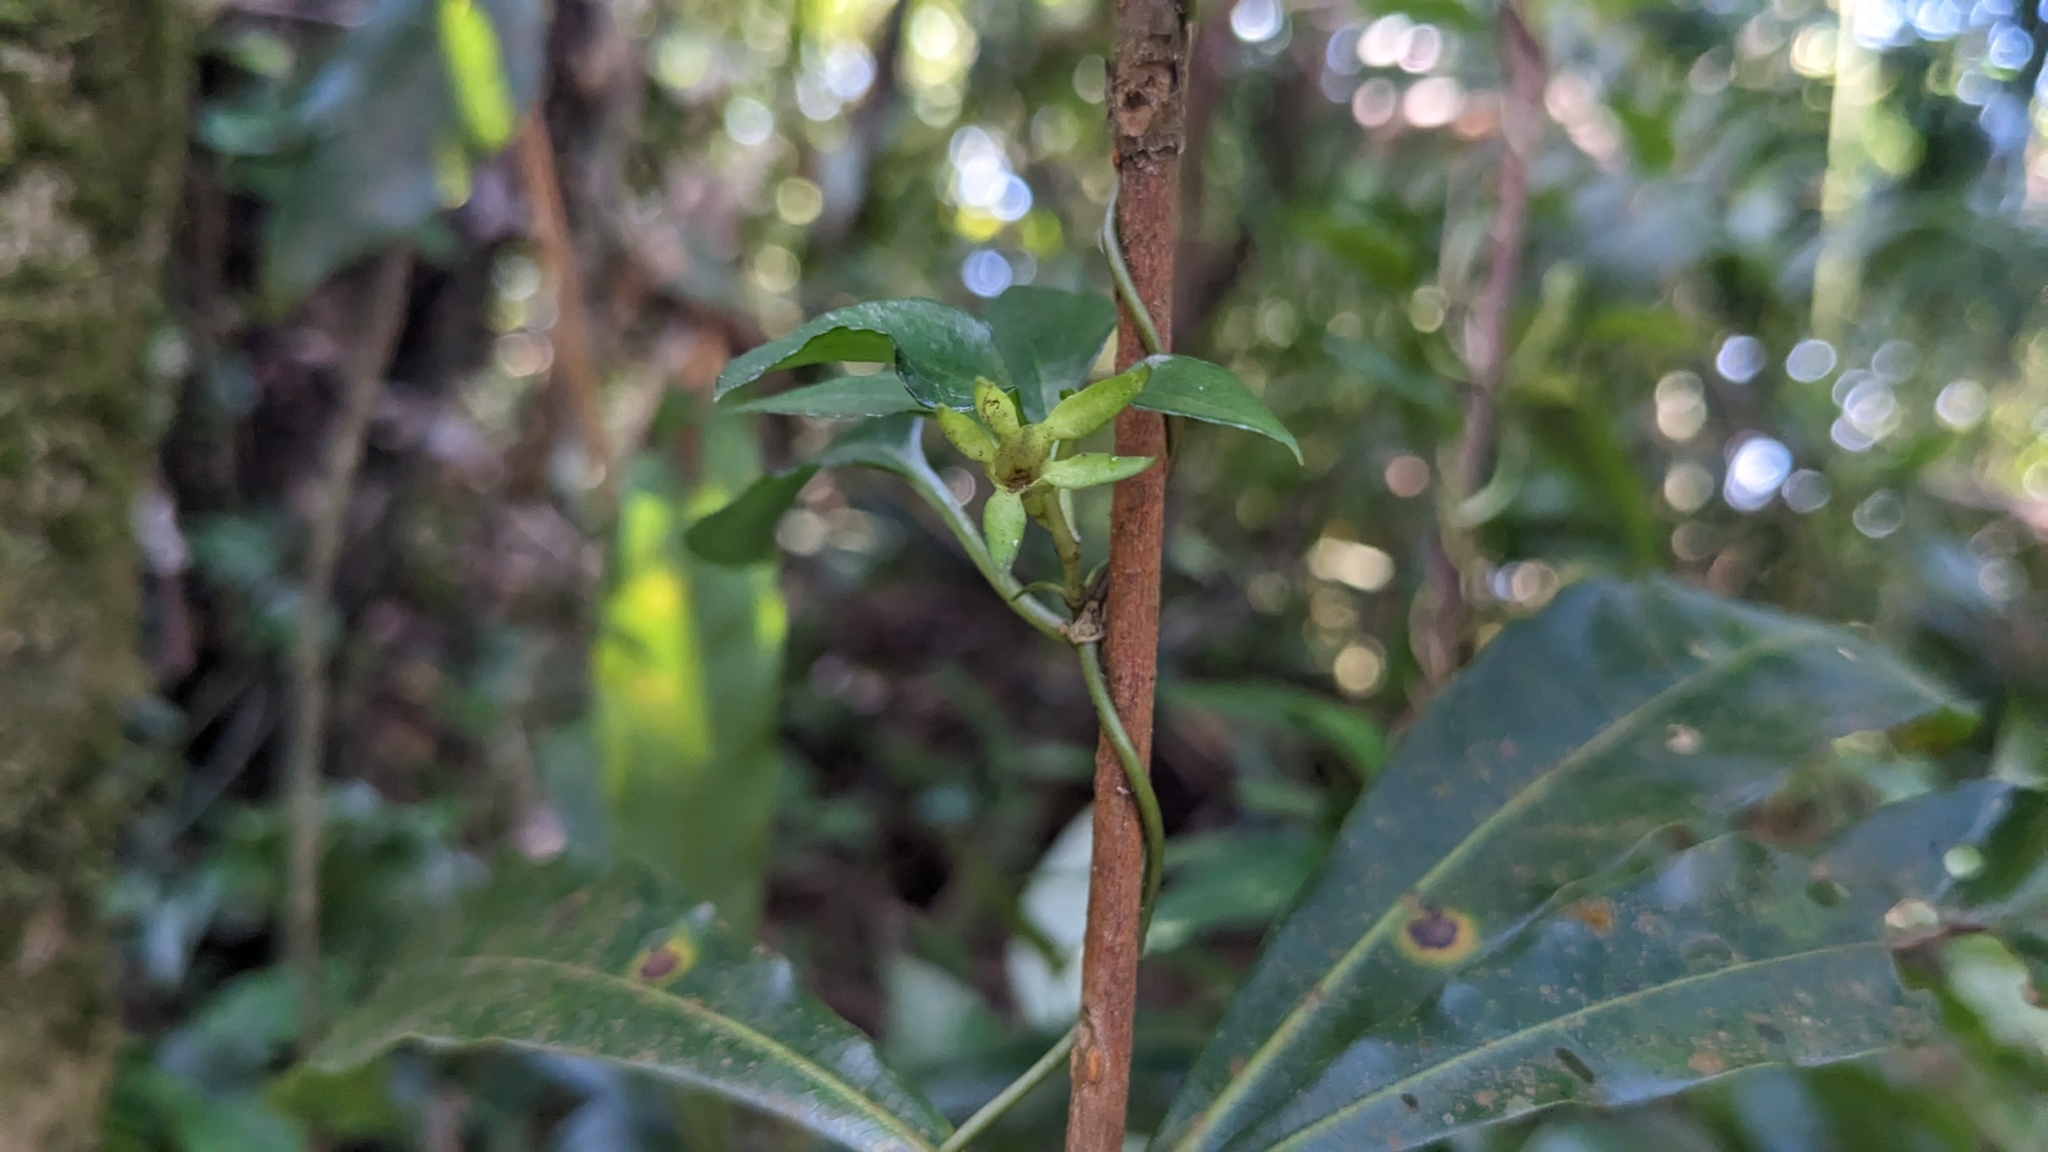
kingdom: Plantae
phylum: Tracheophyta
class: Magnoliopsida
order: Gentianales
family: Gentianaceae
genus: Tripterospermum
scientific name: Tripterospermum lilungshanense
